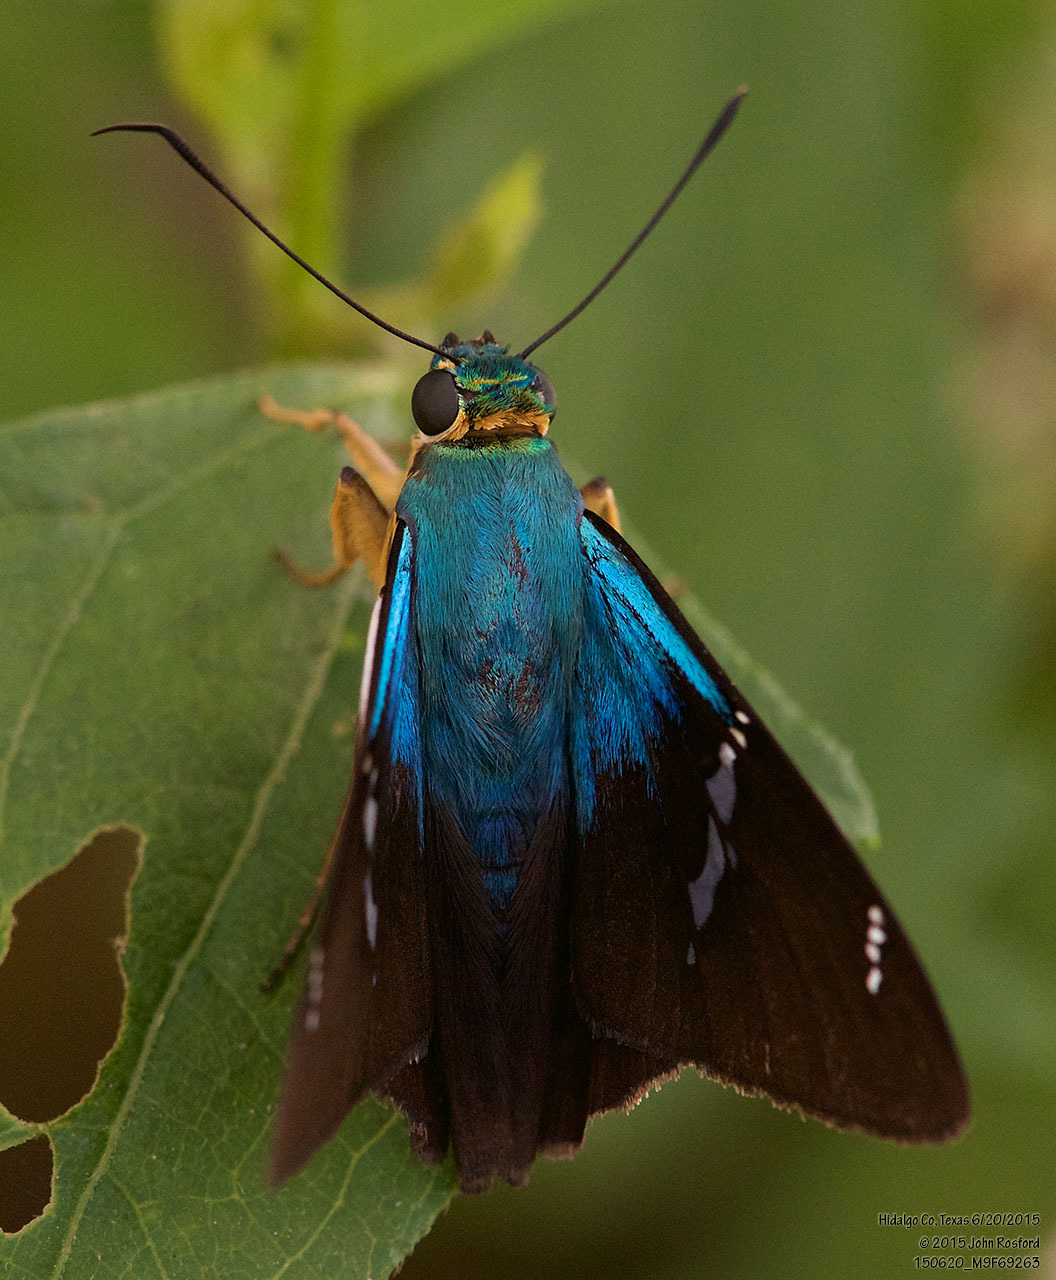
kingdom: Animalia
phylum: Arthropoda
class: Insecta
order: Lepidoptera
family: Hesperiidae
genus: Astraptes
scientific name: Astraptes fulgerator
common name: Two-barred flasher
